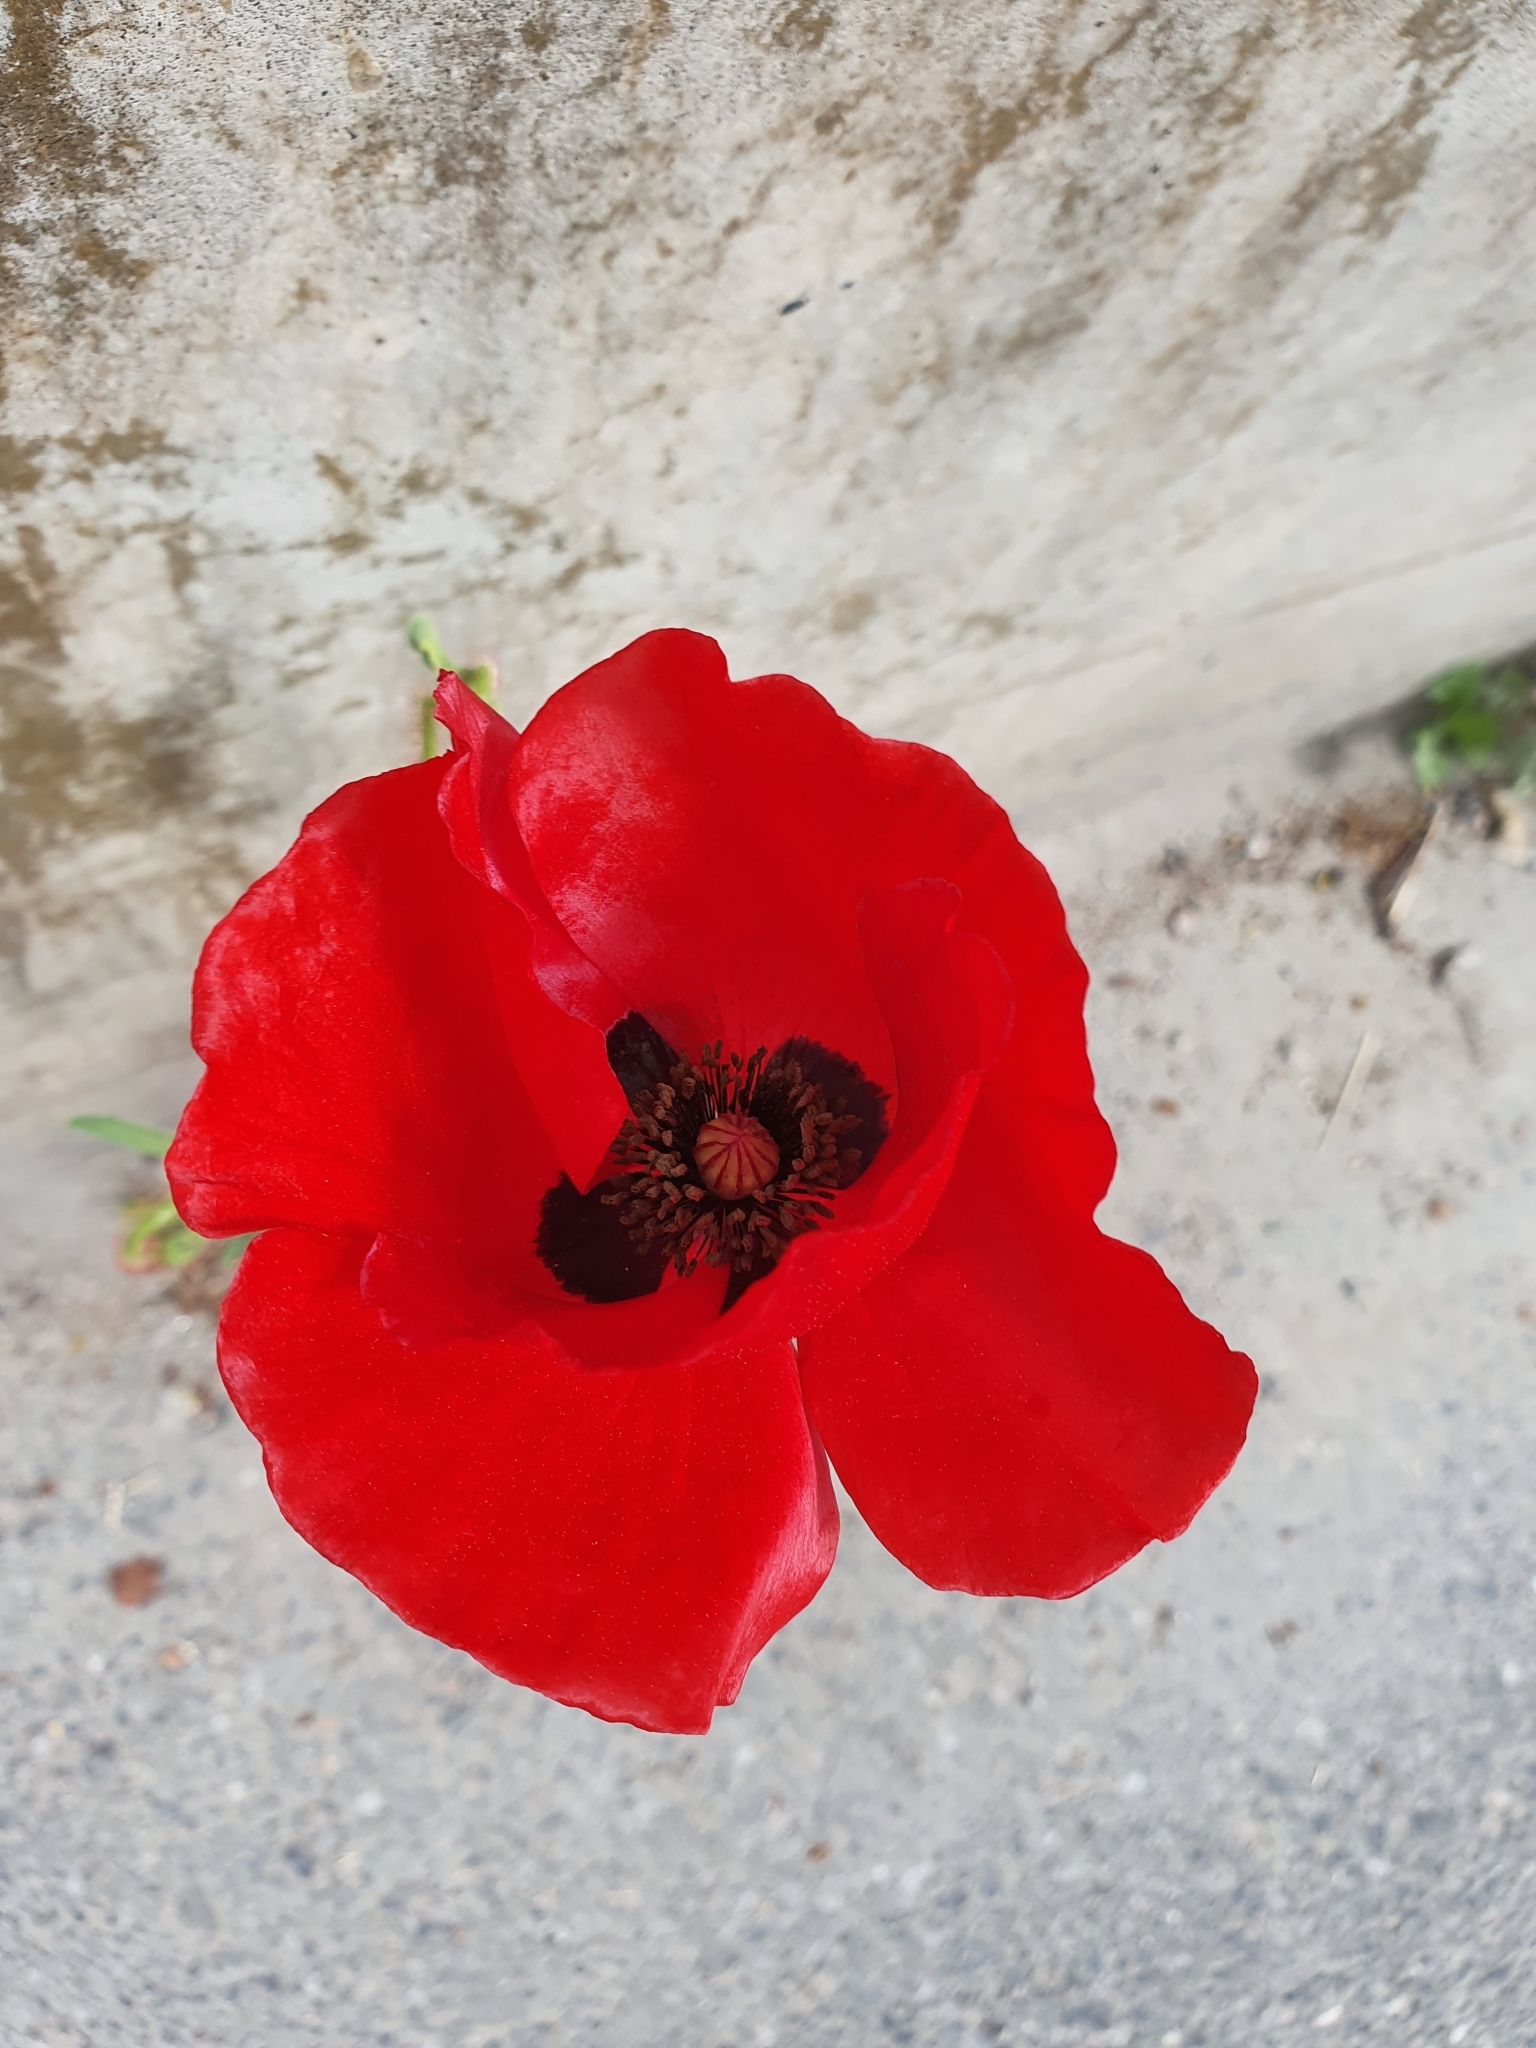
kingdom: Plantae
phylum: Tracheophyta
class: Magnoliopsida
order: Ranunculales
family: Papaveraceae
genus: Papaver
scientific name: Papaver rhoeas
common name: Corn poppy
